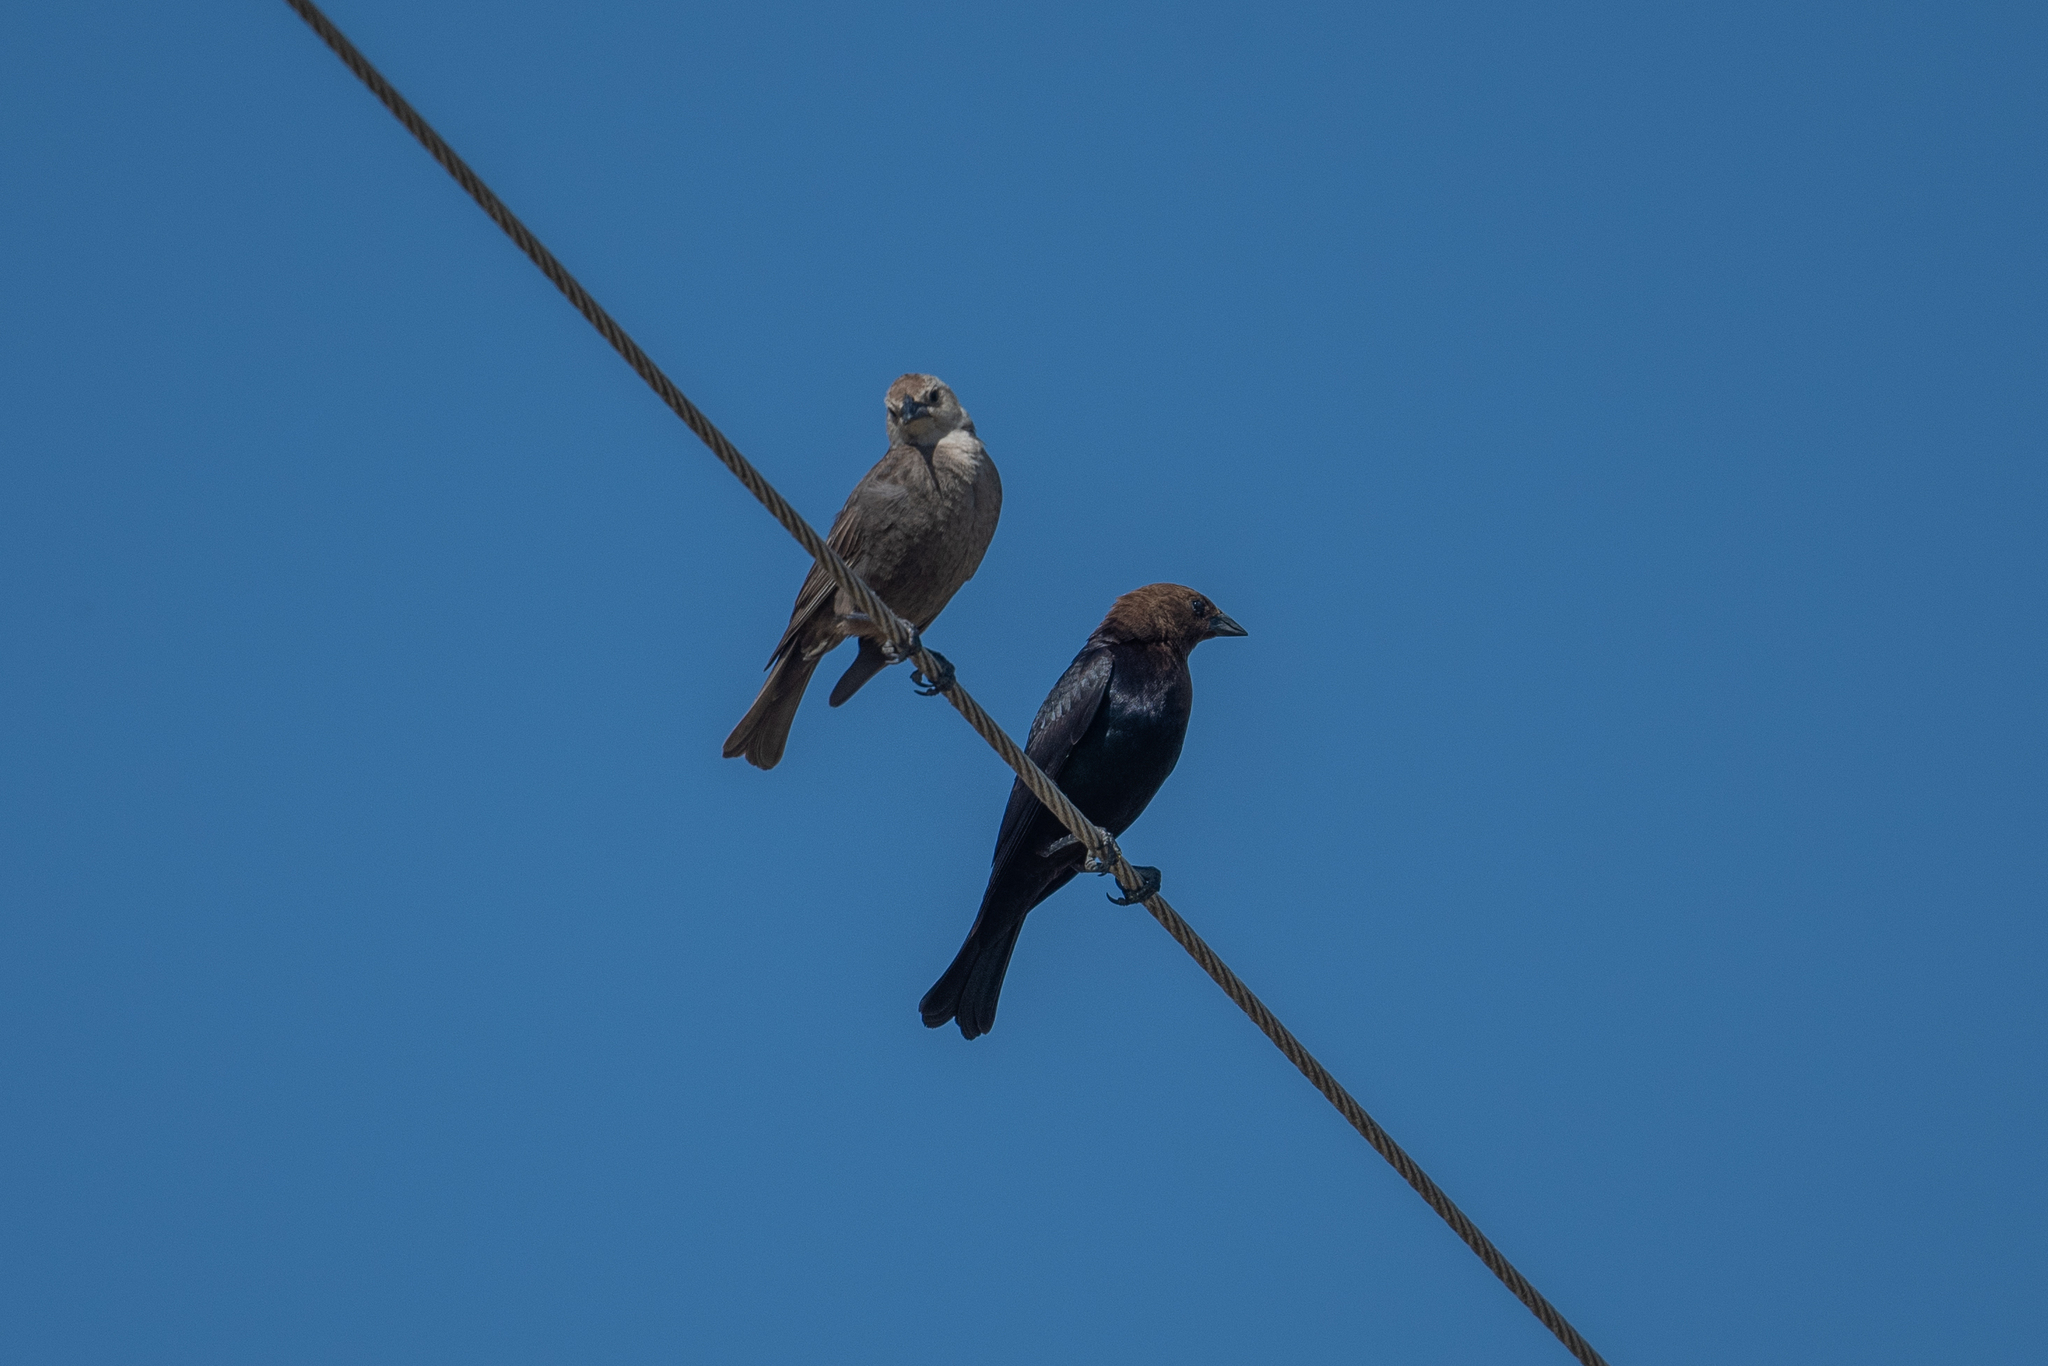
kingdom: Animalia
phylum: Chordata
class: Aves
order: Passeriformes
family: Icteridae
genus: Molothrus
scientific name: Molothrus ater
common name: Brown-headed cowbird
